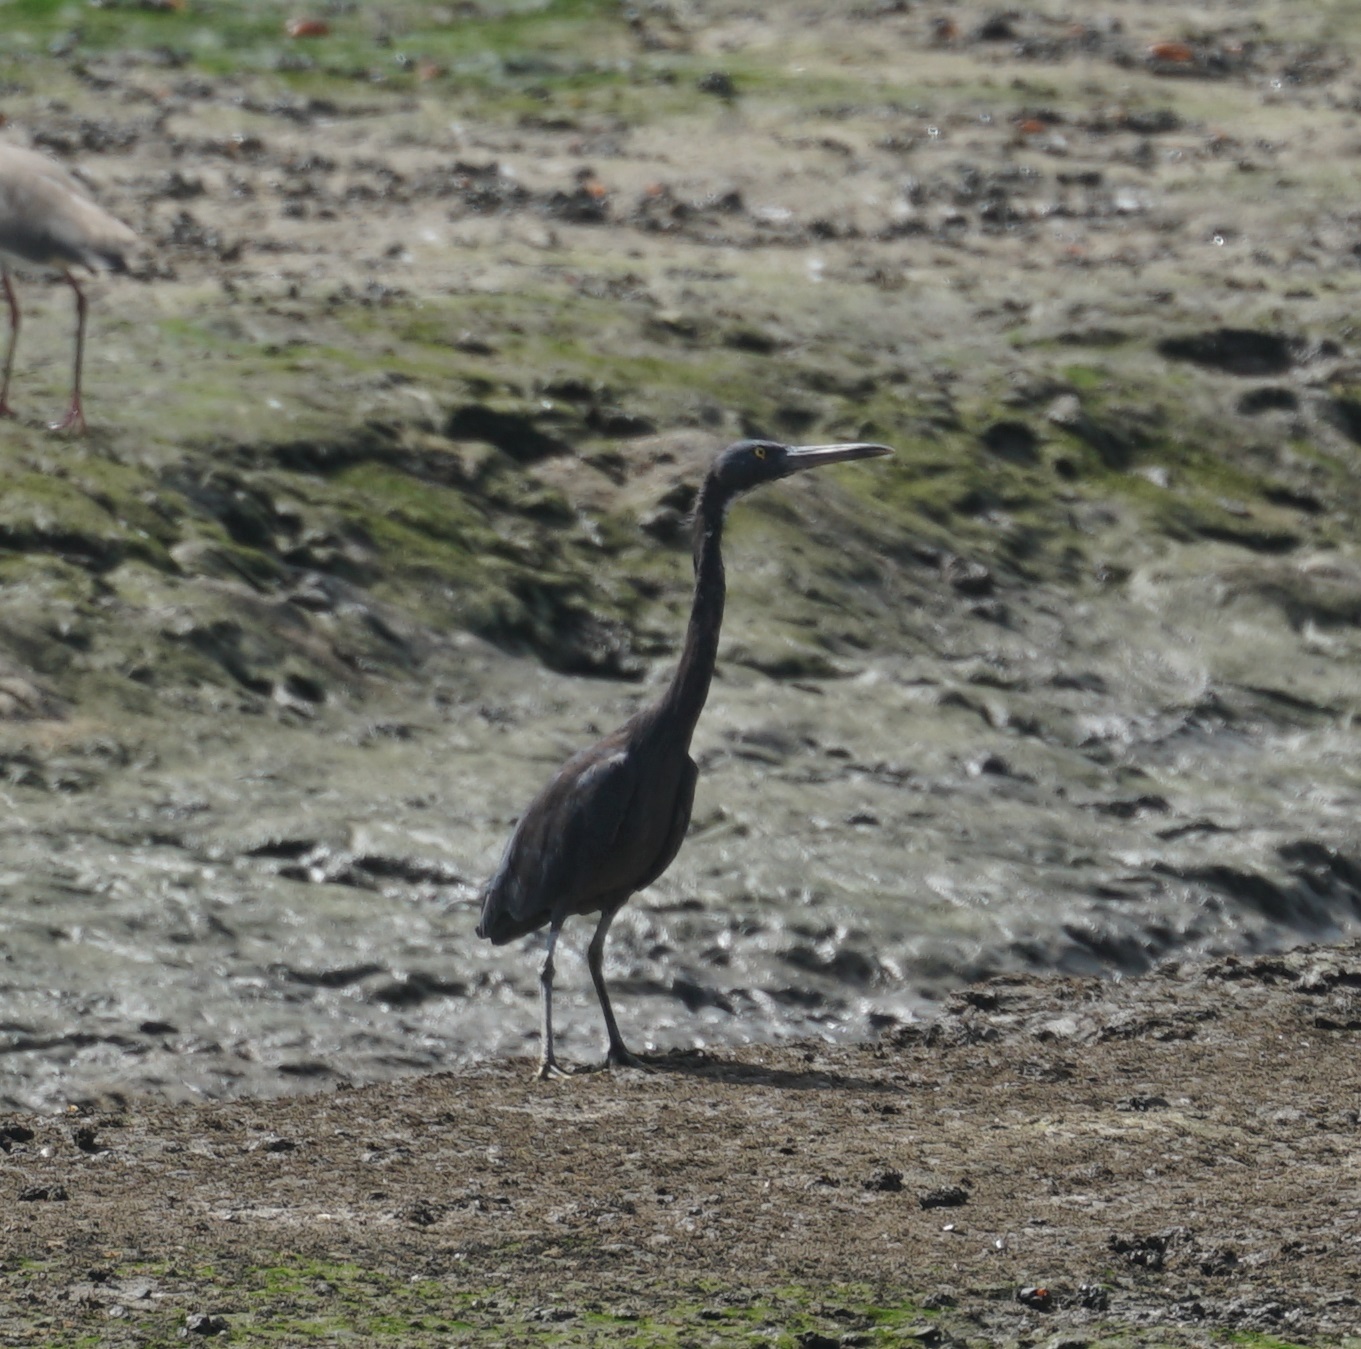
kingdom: Animalia
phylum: Chordata
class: Aves
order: Pelecaniformes
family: Ardeidae
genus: Egretta
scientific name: Egretta sacra
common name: Pacific reef heron
